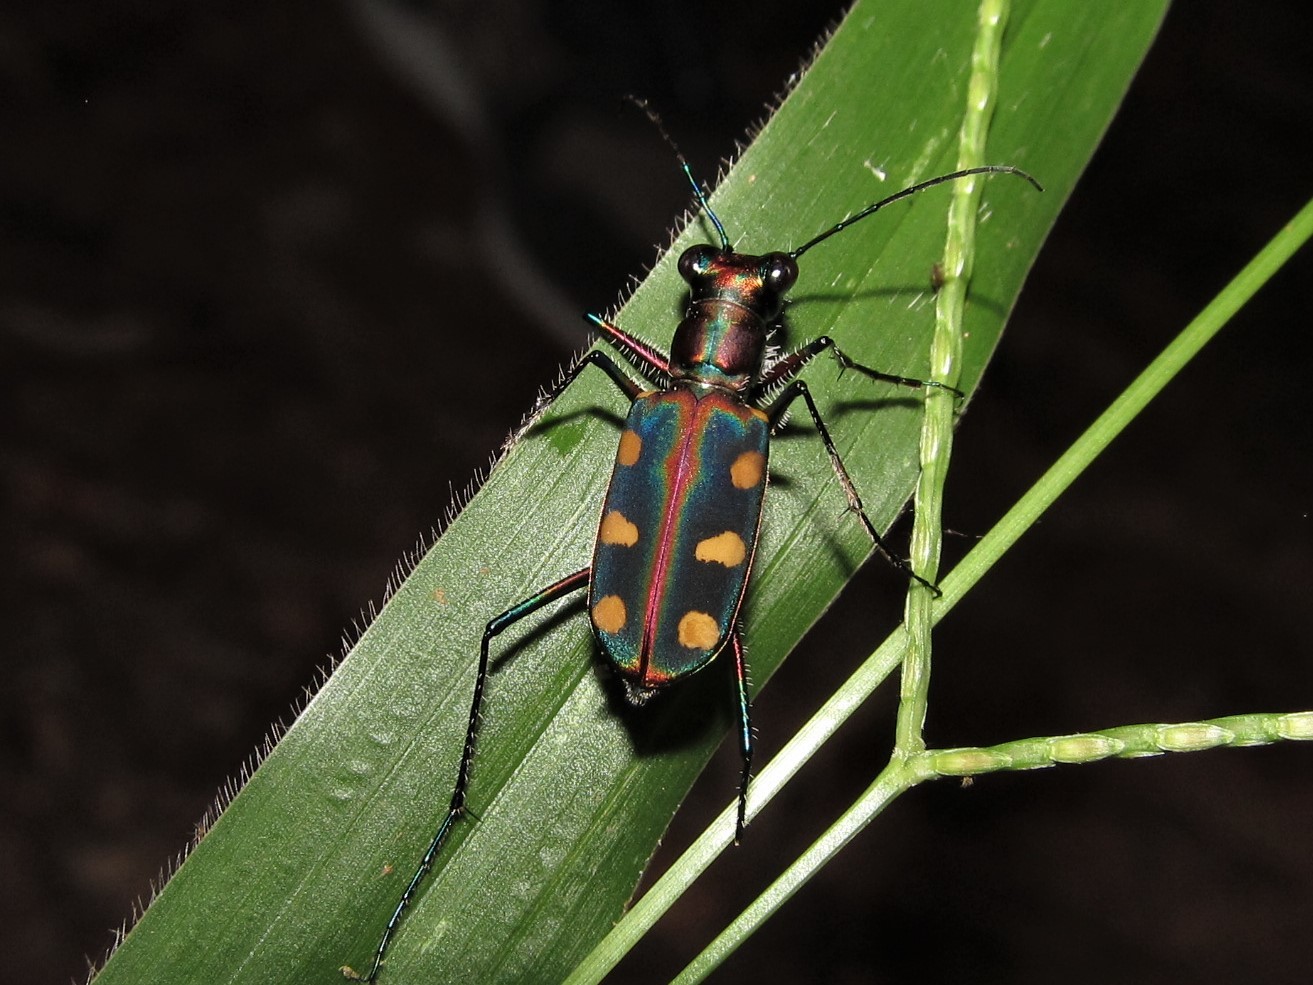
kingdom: Animalia
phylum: Arthropoda
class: Insecta
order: Coleoptera
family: Carabidae
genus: Cicindela
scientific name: Cicindela aurulenta
